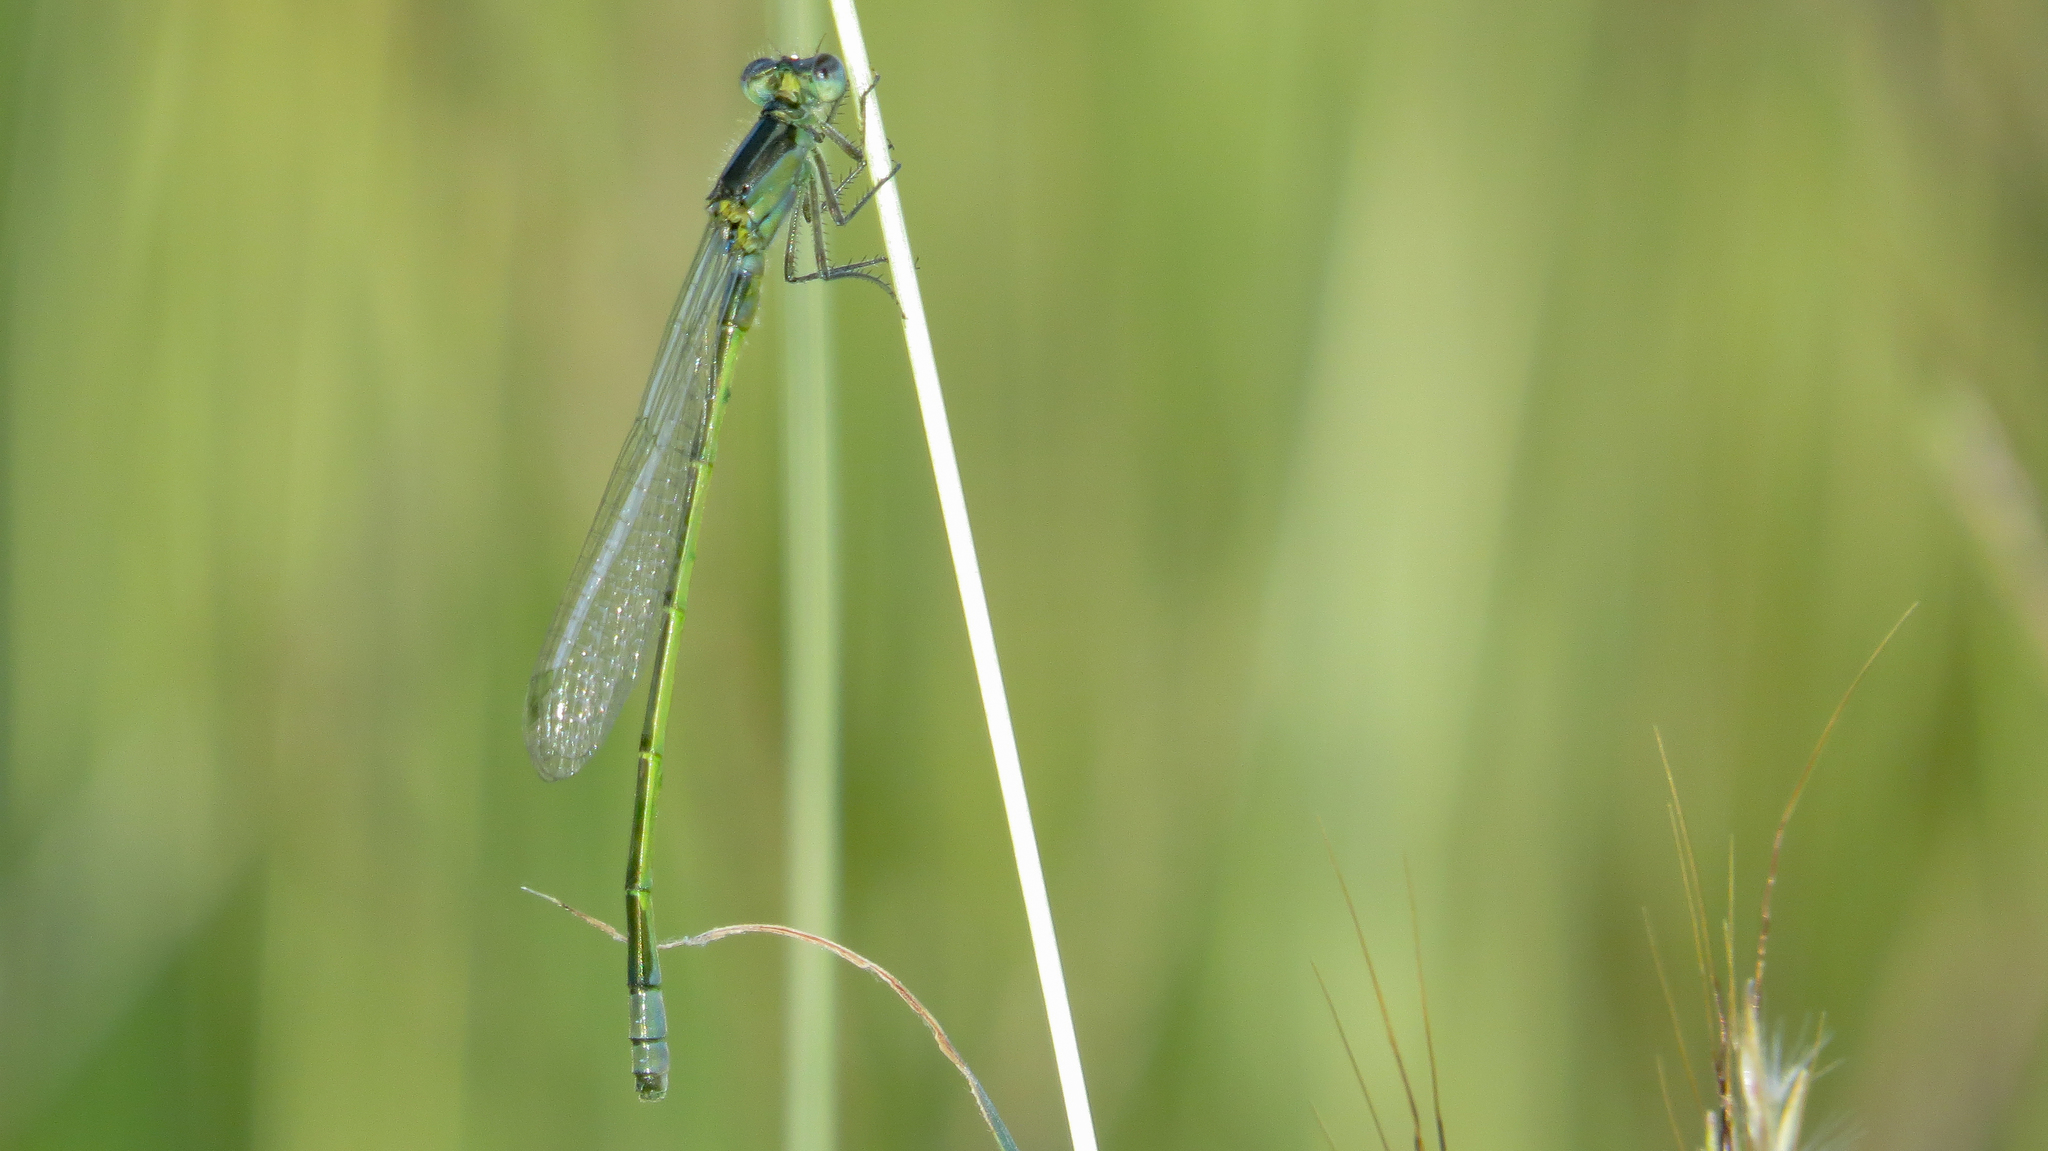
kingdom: Animalia
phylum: Arthropoda
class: Insecta
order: Odonata
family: Coenagrionidae
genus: Ischnura
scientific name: Ischnura heterosticta
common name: Common bluetail
